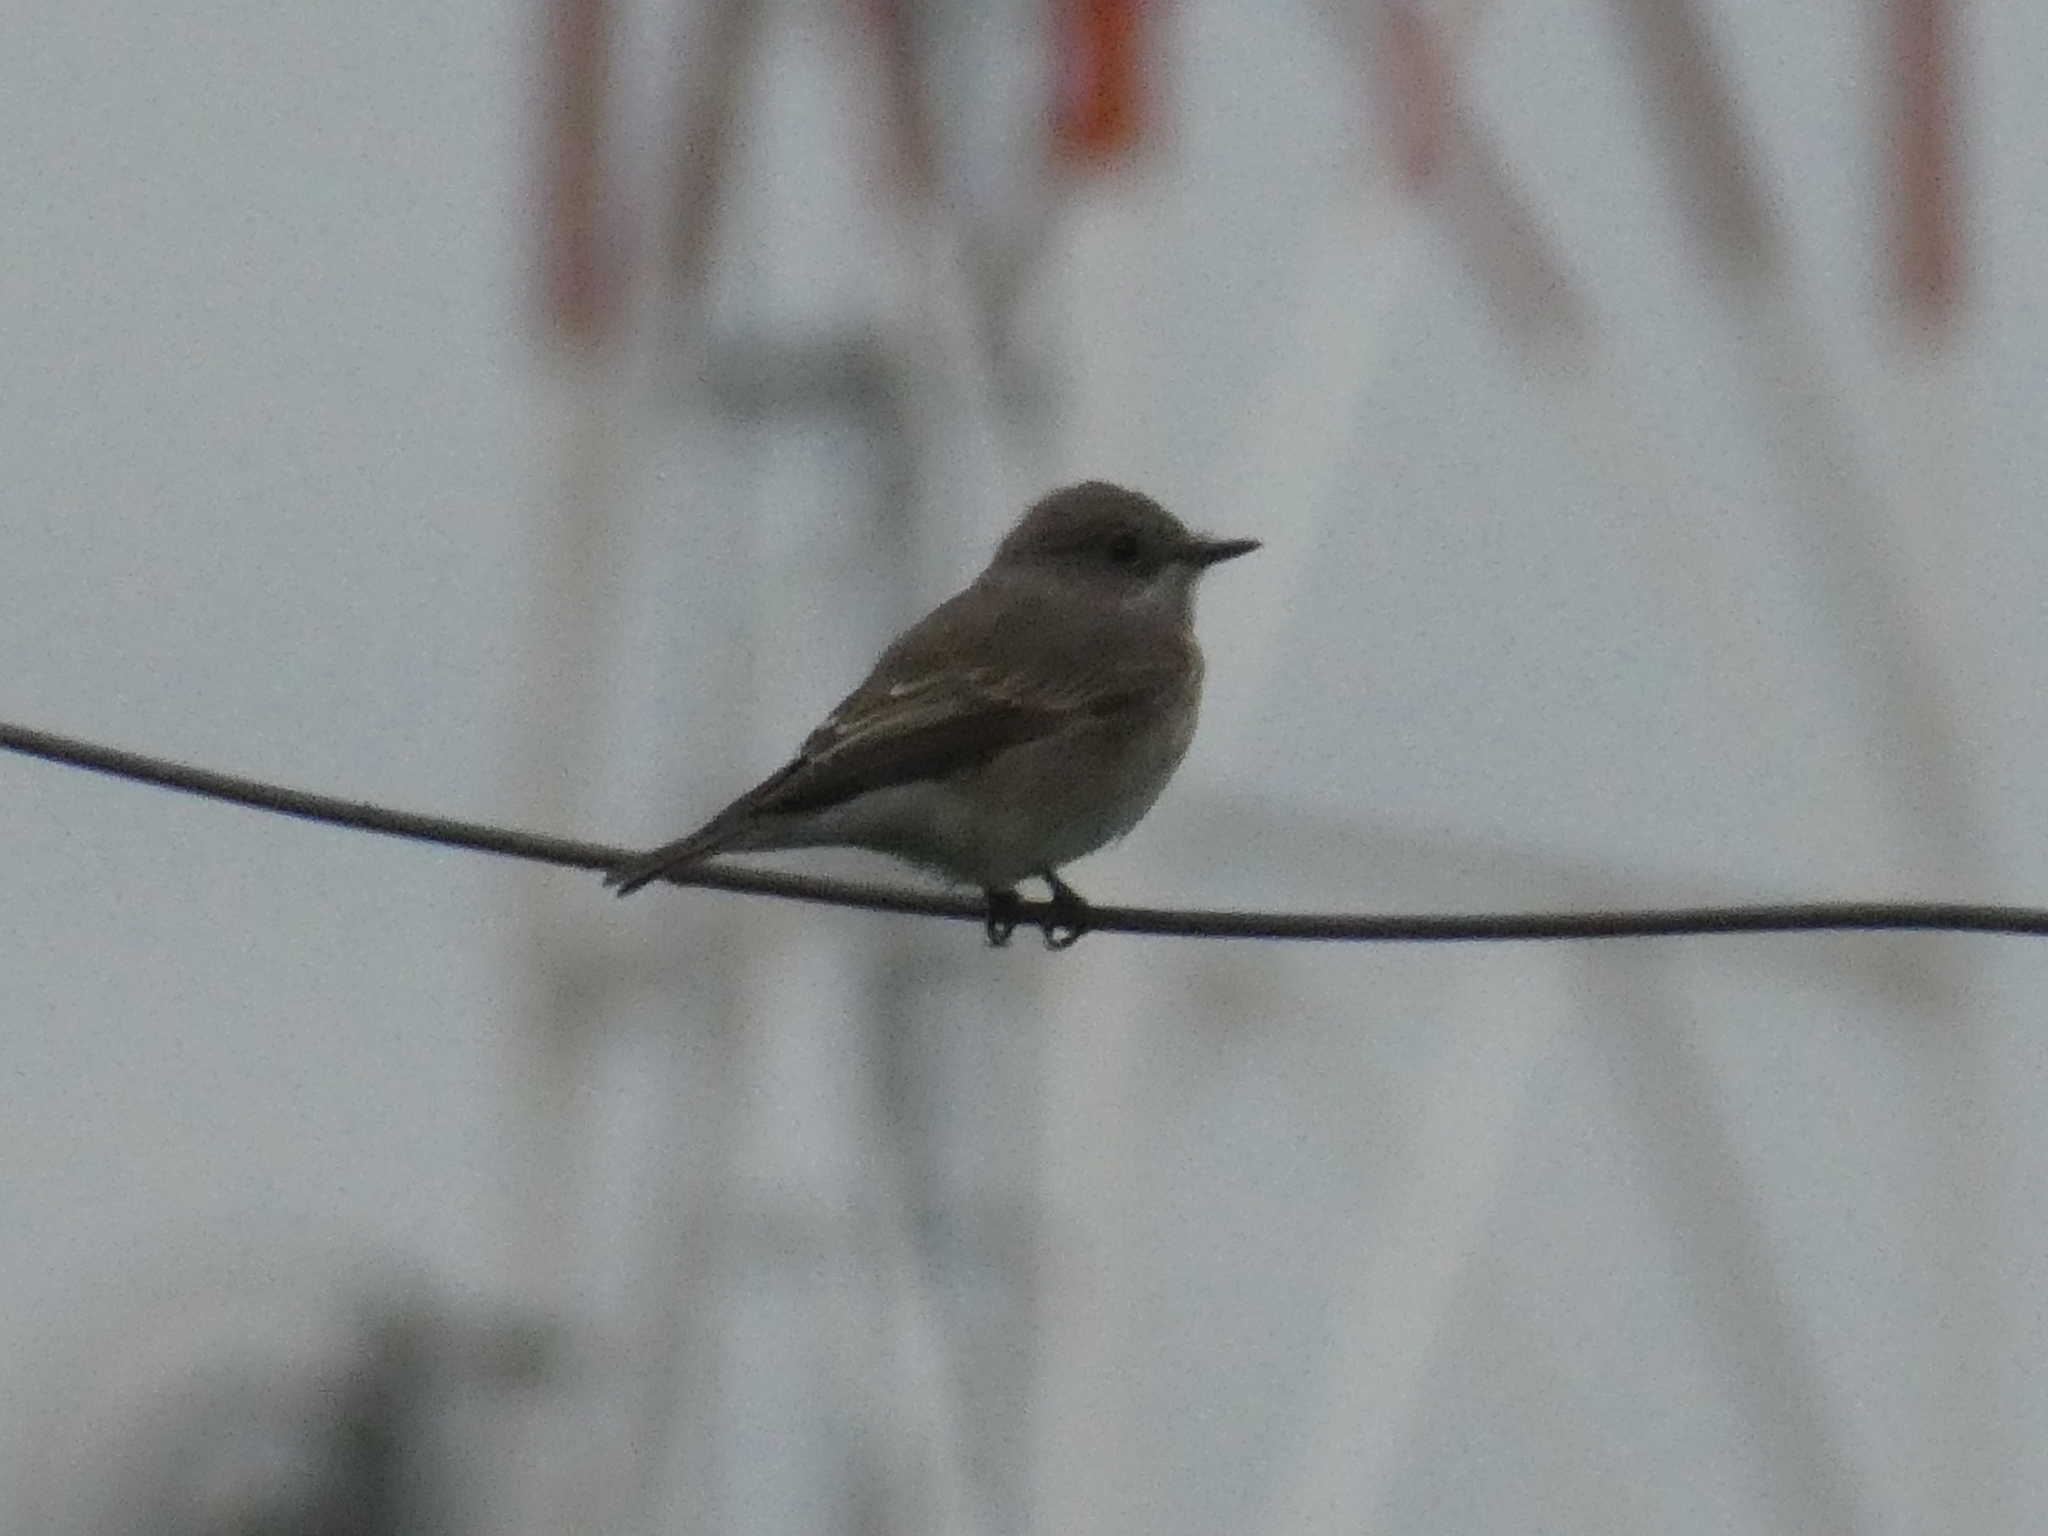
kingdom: Animalia
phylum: Chordata
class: Aves
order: Passeriformes
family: Muscicapidae
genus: Muscicapa
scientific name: Muscicapa striata
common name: Spotted flycatcher
